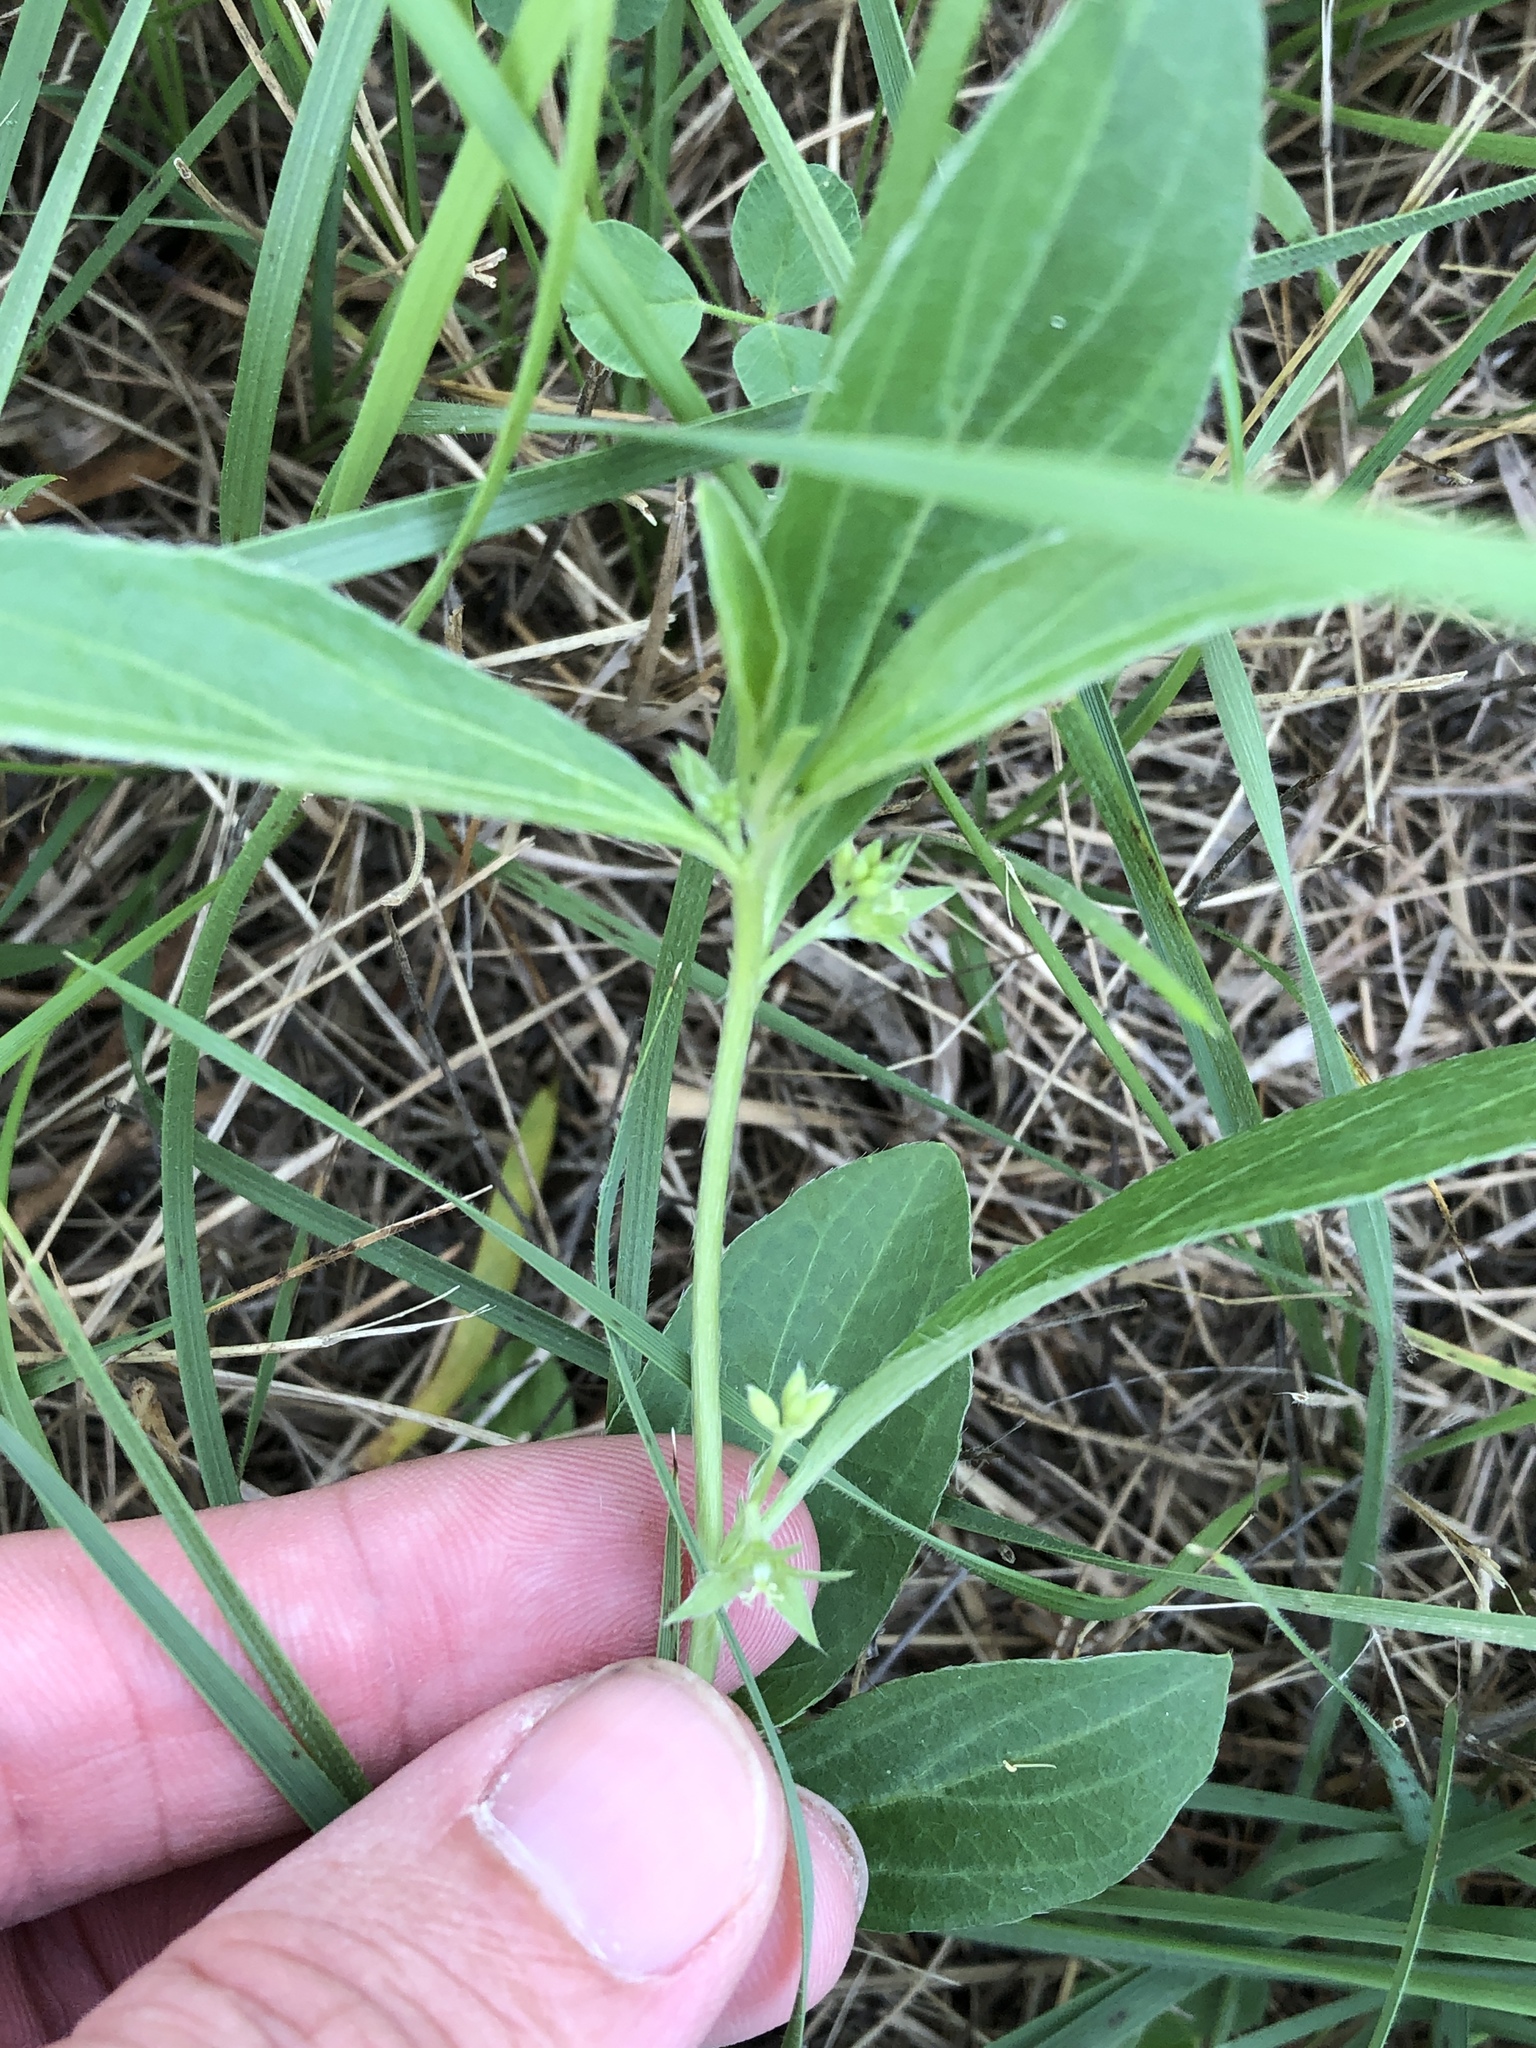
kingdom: Plantae
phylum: Tracheophyta
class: Magnoliopsida
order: Malpighiales
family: Euphorbiaceae
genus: Ditaxis
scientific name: Ditaxis humilis
